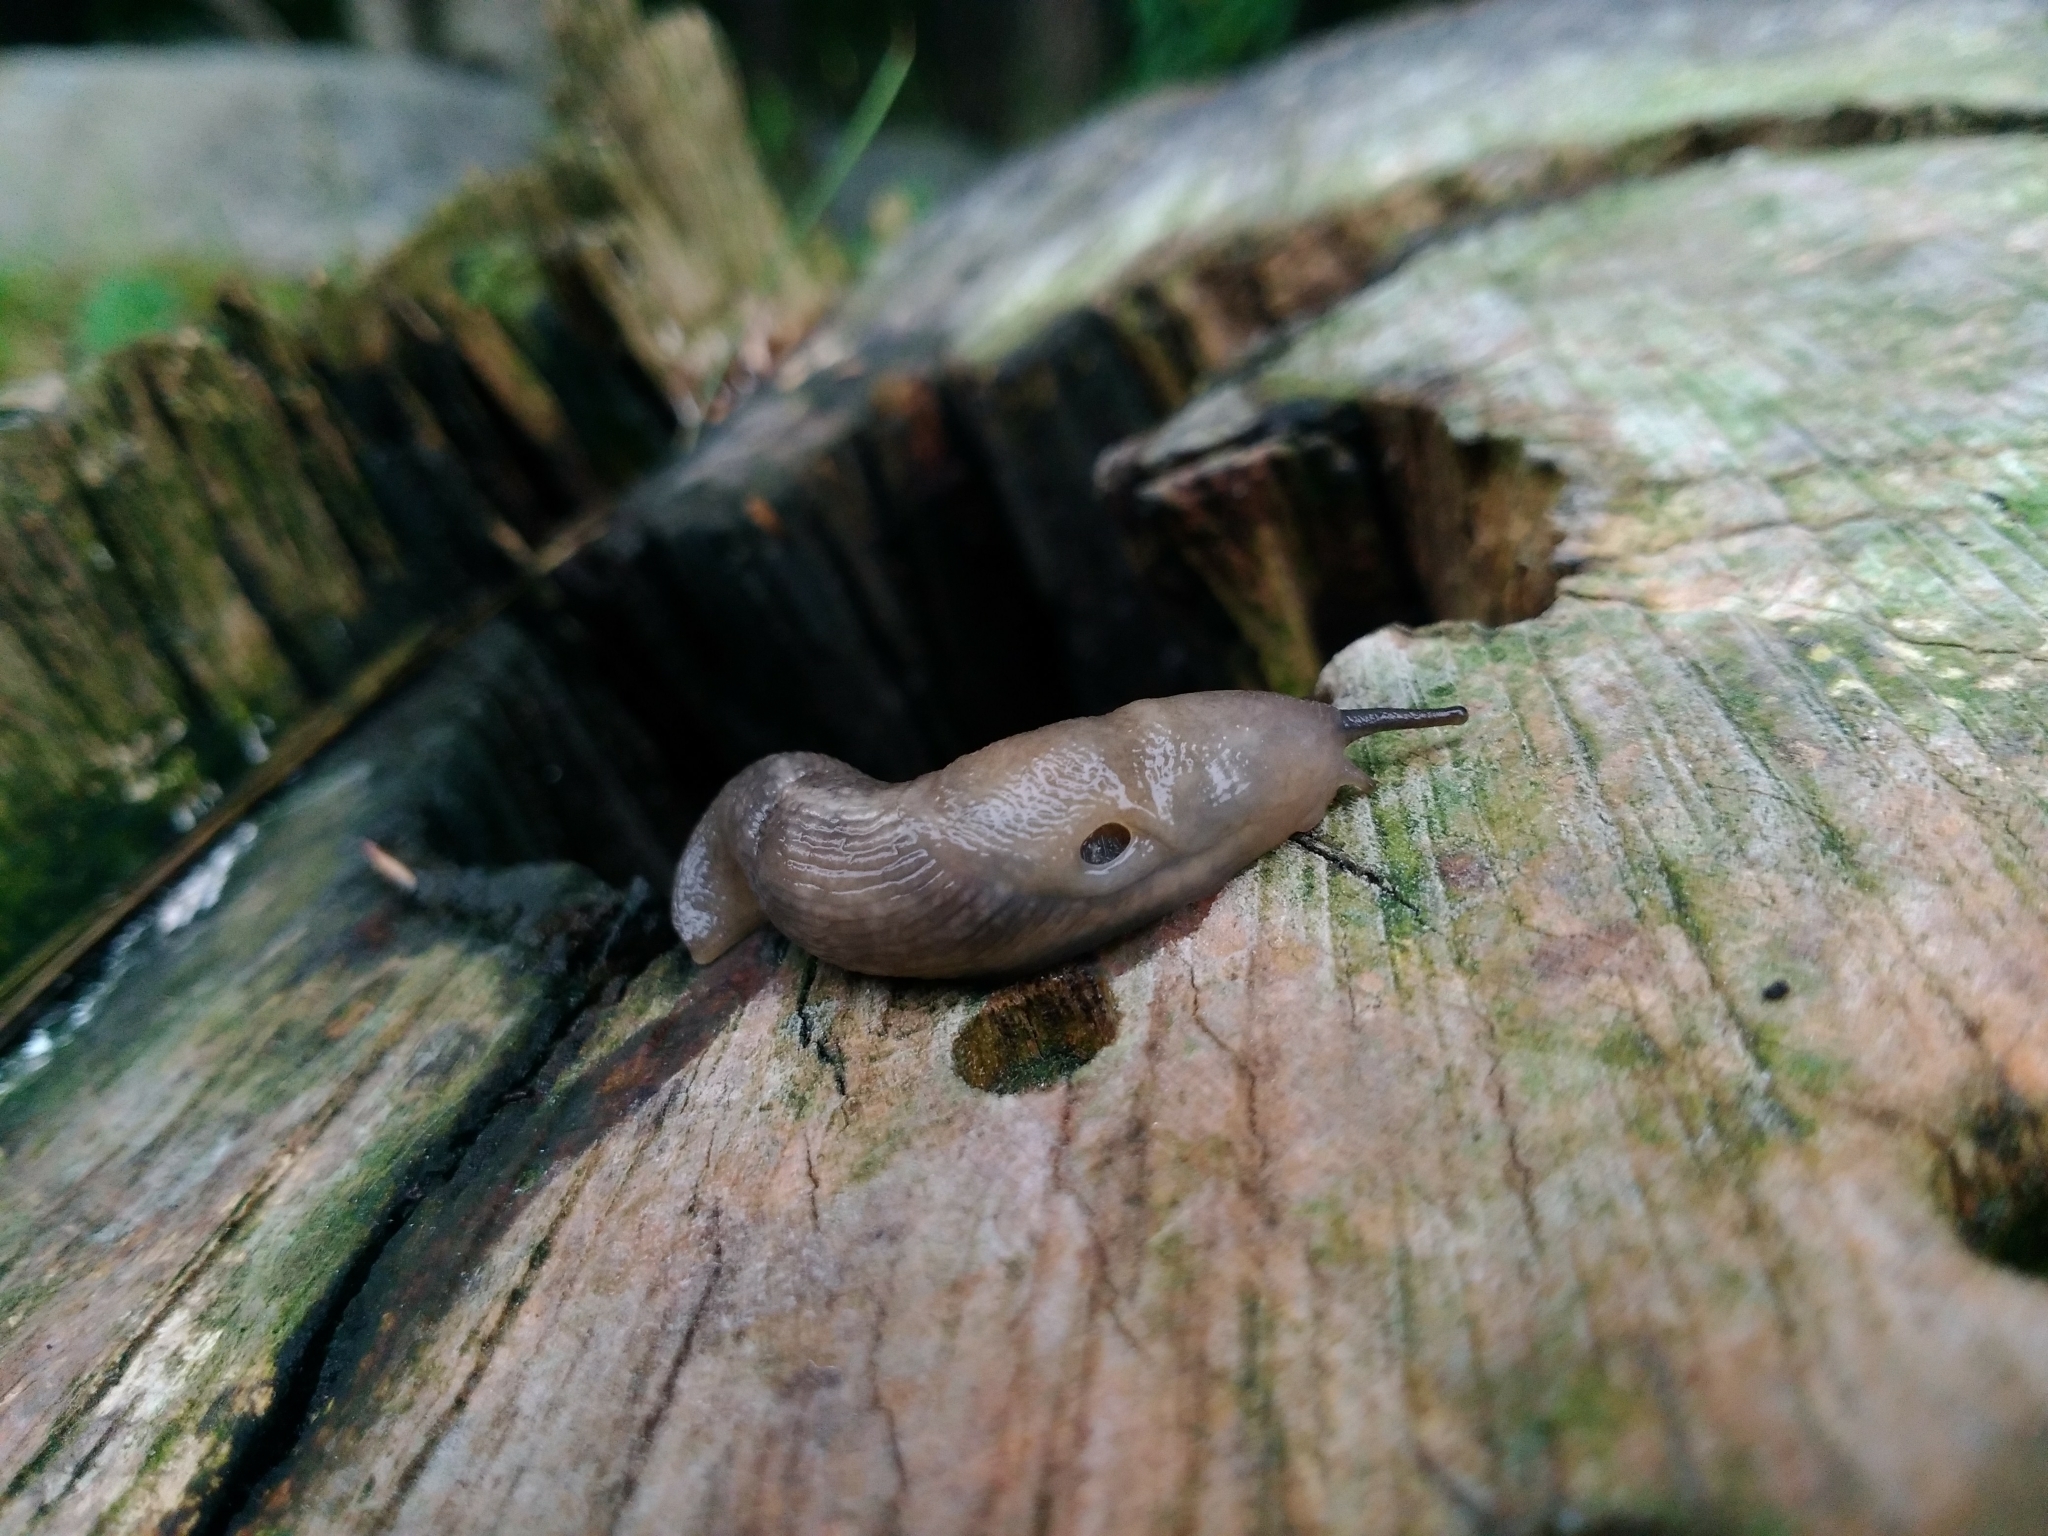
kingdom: Animalia
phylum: Mollusca
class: Gastropoda
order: Stylommatophora
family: Limacidae
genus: Lehmannia
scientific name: Lehmannia marginata
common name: Tree slug
